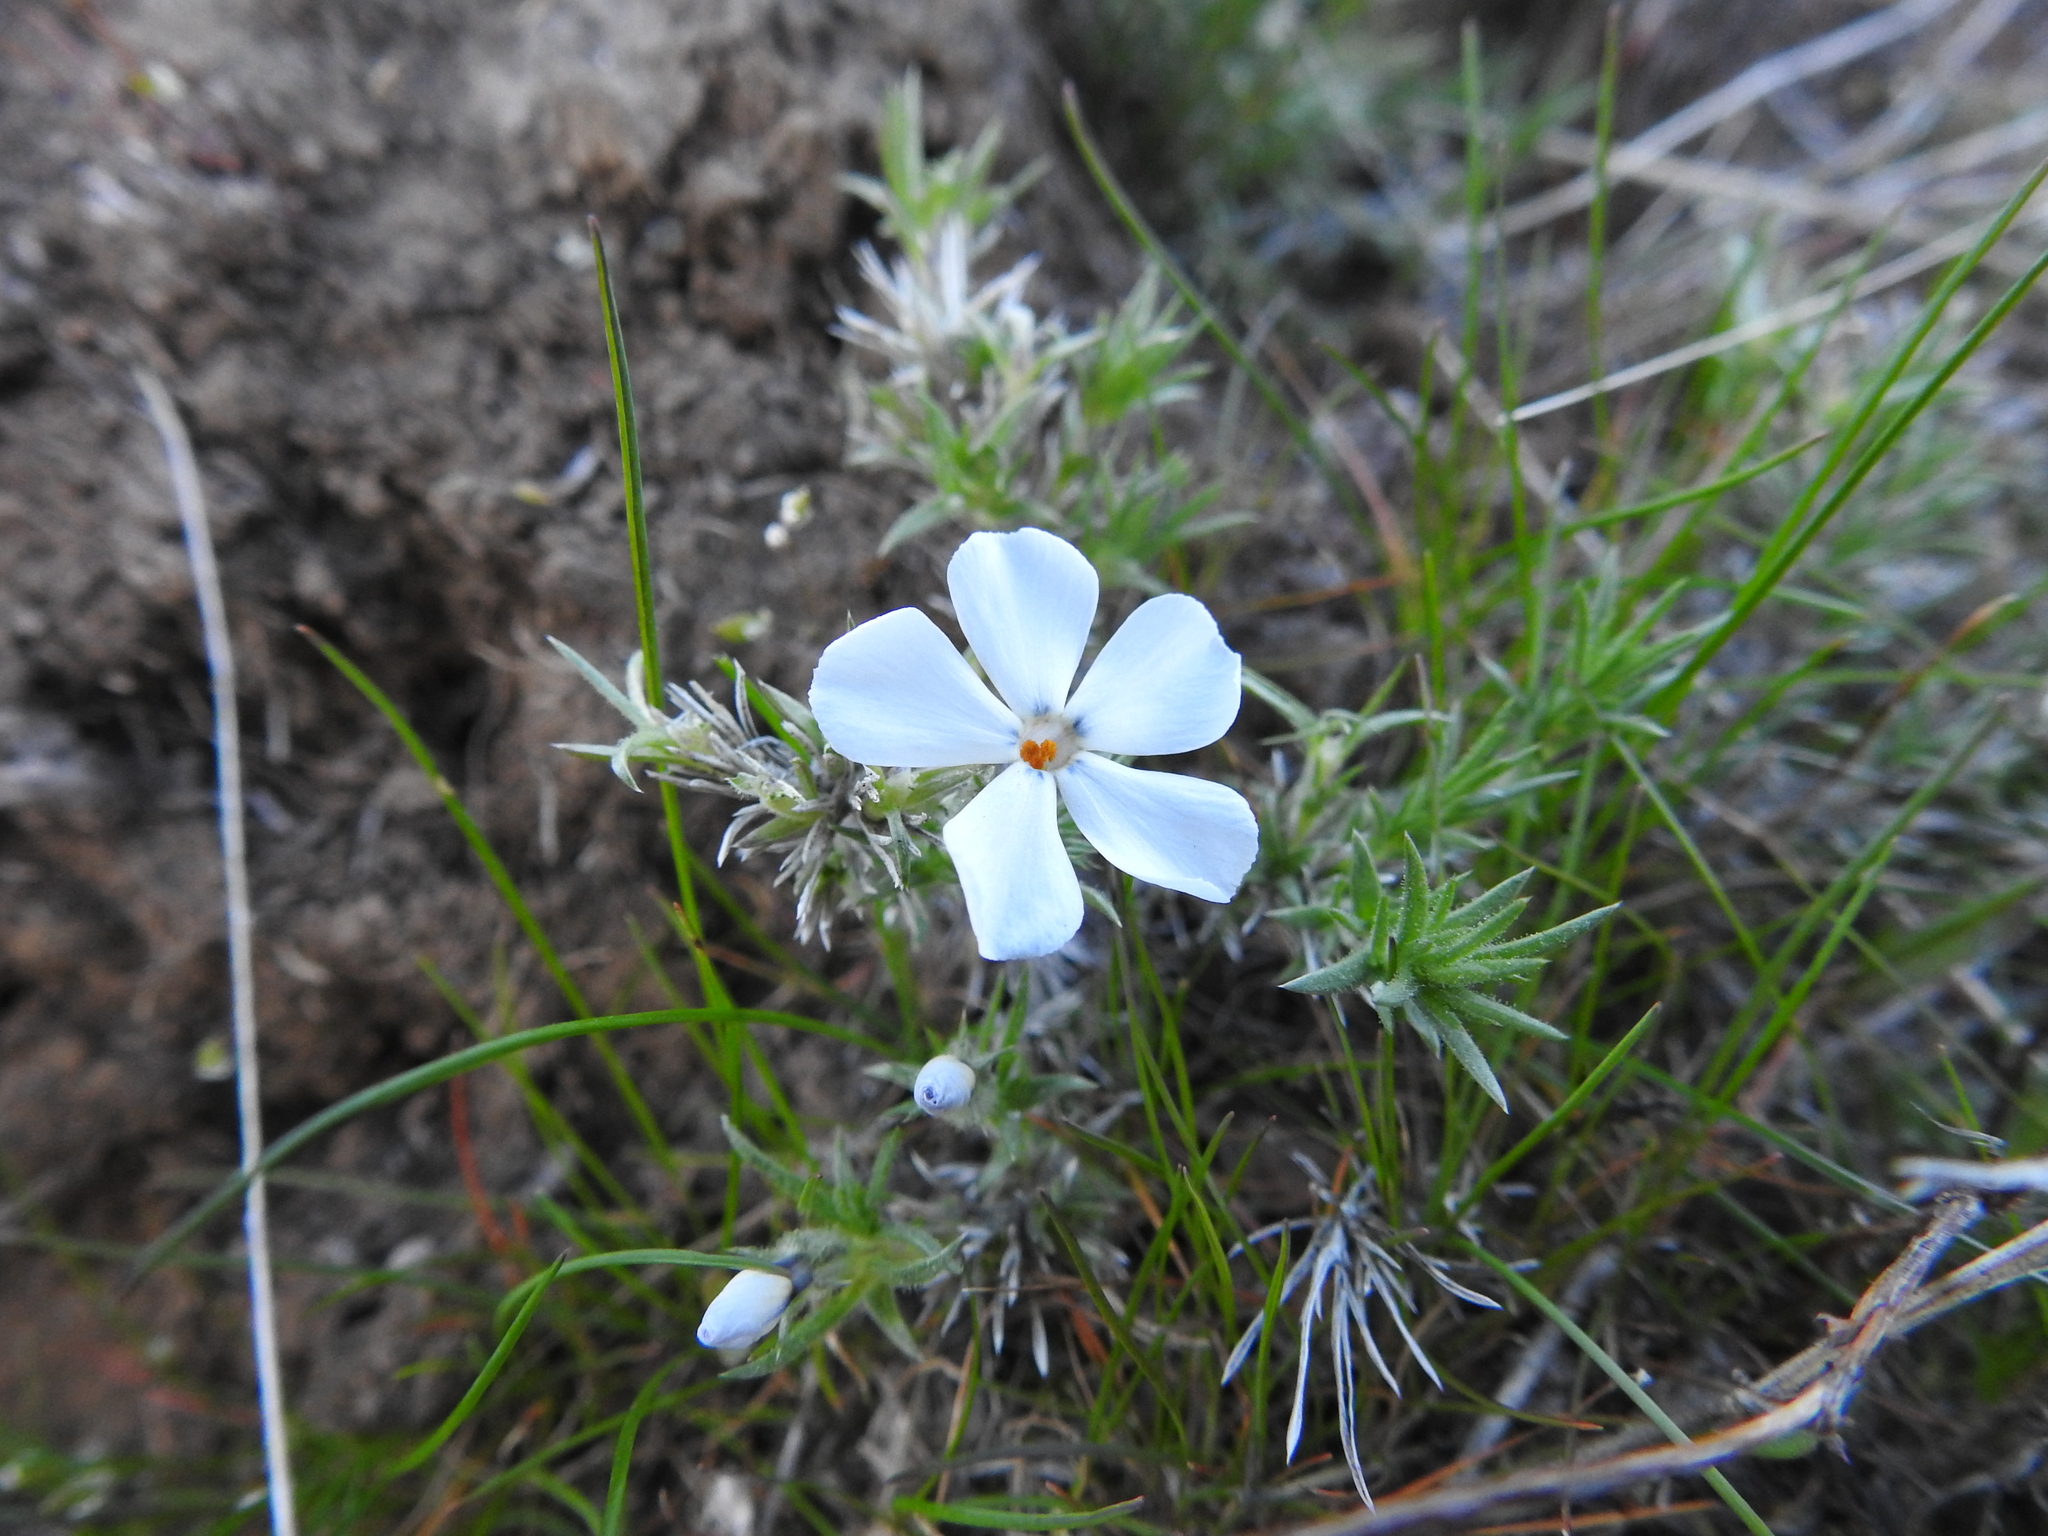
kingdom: Plantae
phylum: Tracheophyta
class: Magnoliopsida
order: Ericales
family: Polemoniaceae
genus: Phlox
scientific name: Phlox hoodii
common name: Moss phlox
